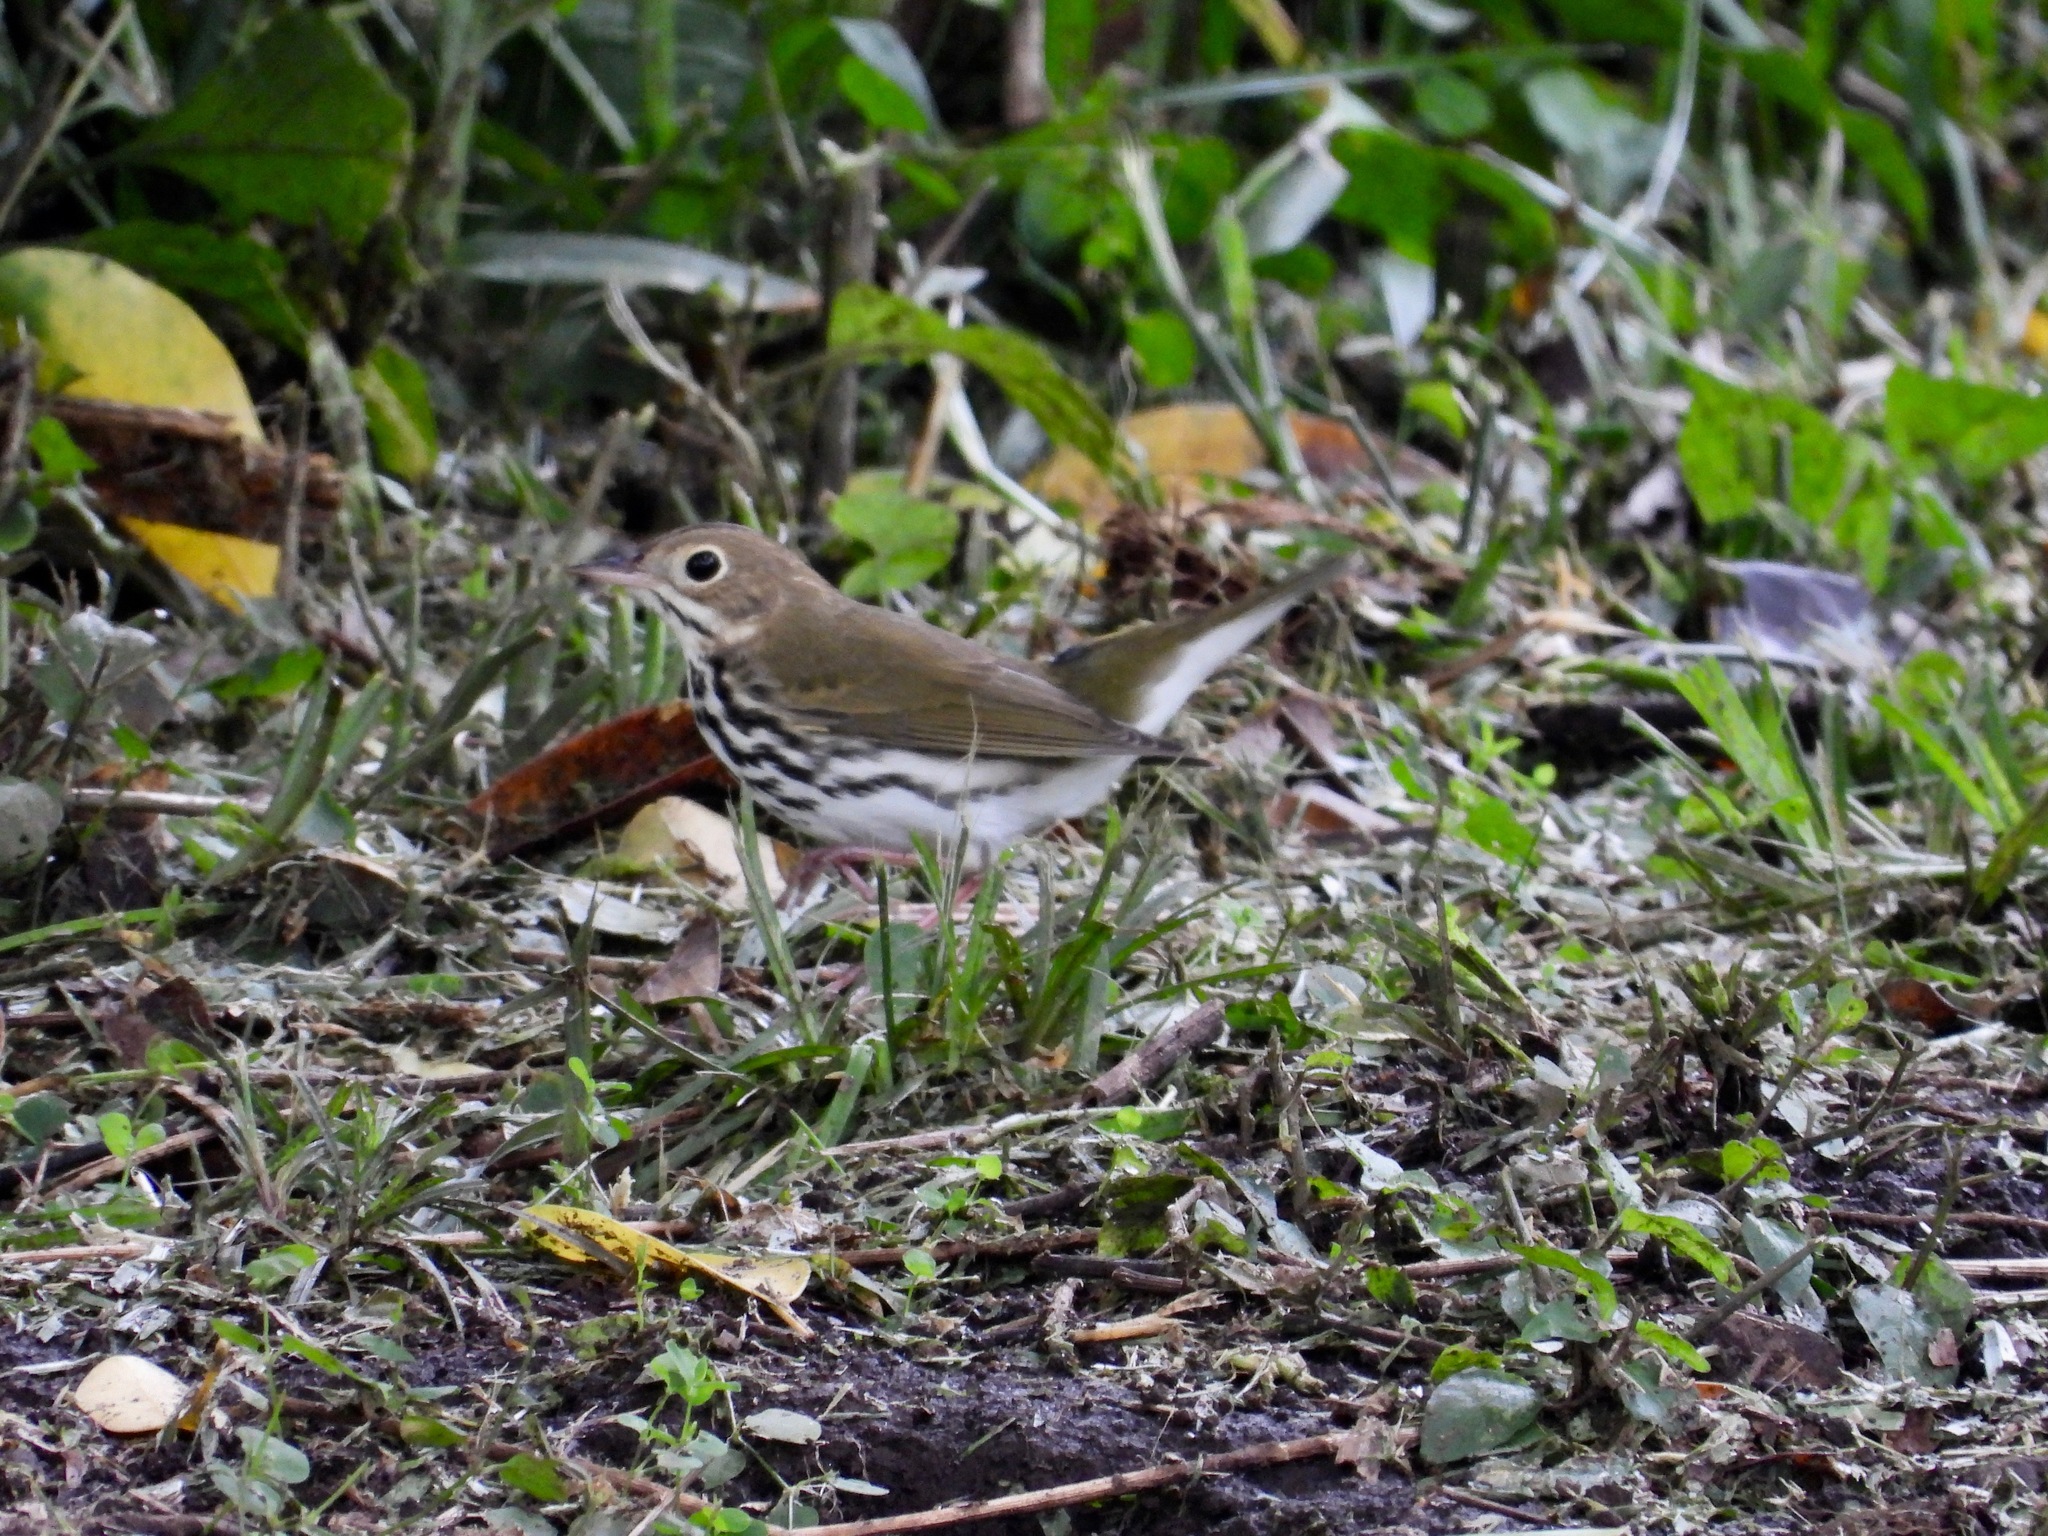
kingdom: Animalia
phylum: Chordata
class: Aves
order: Passeriformes
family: Parulidae
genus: Seiurus
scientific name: Seiurus aurocapilla
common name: Ovenbird
